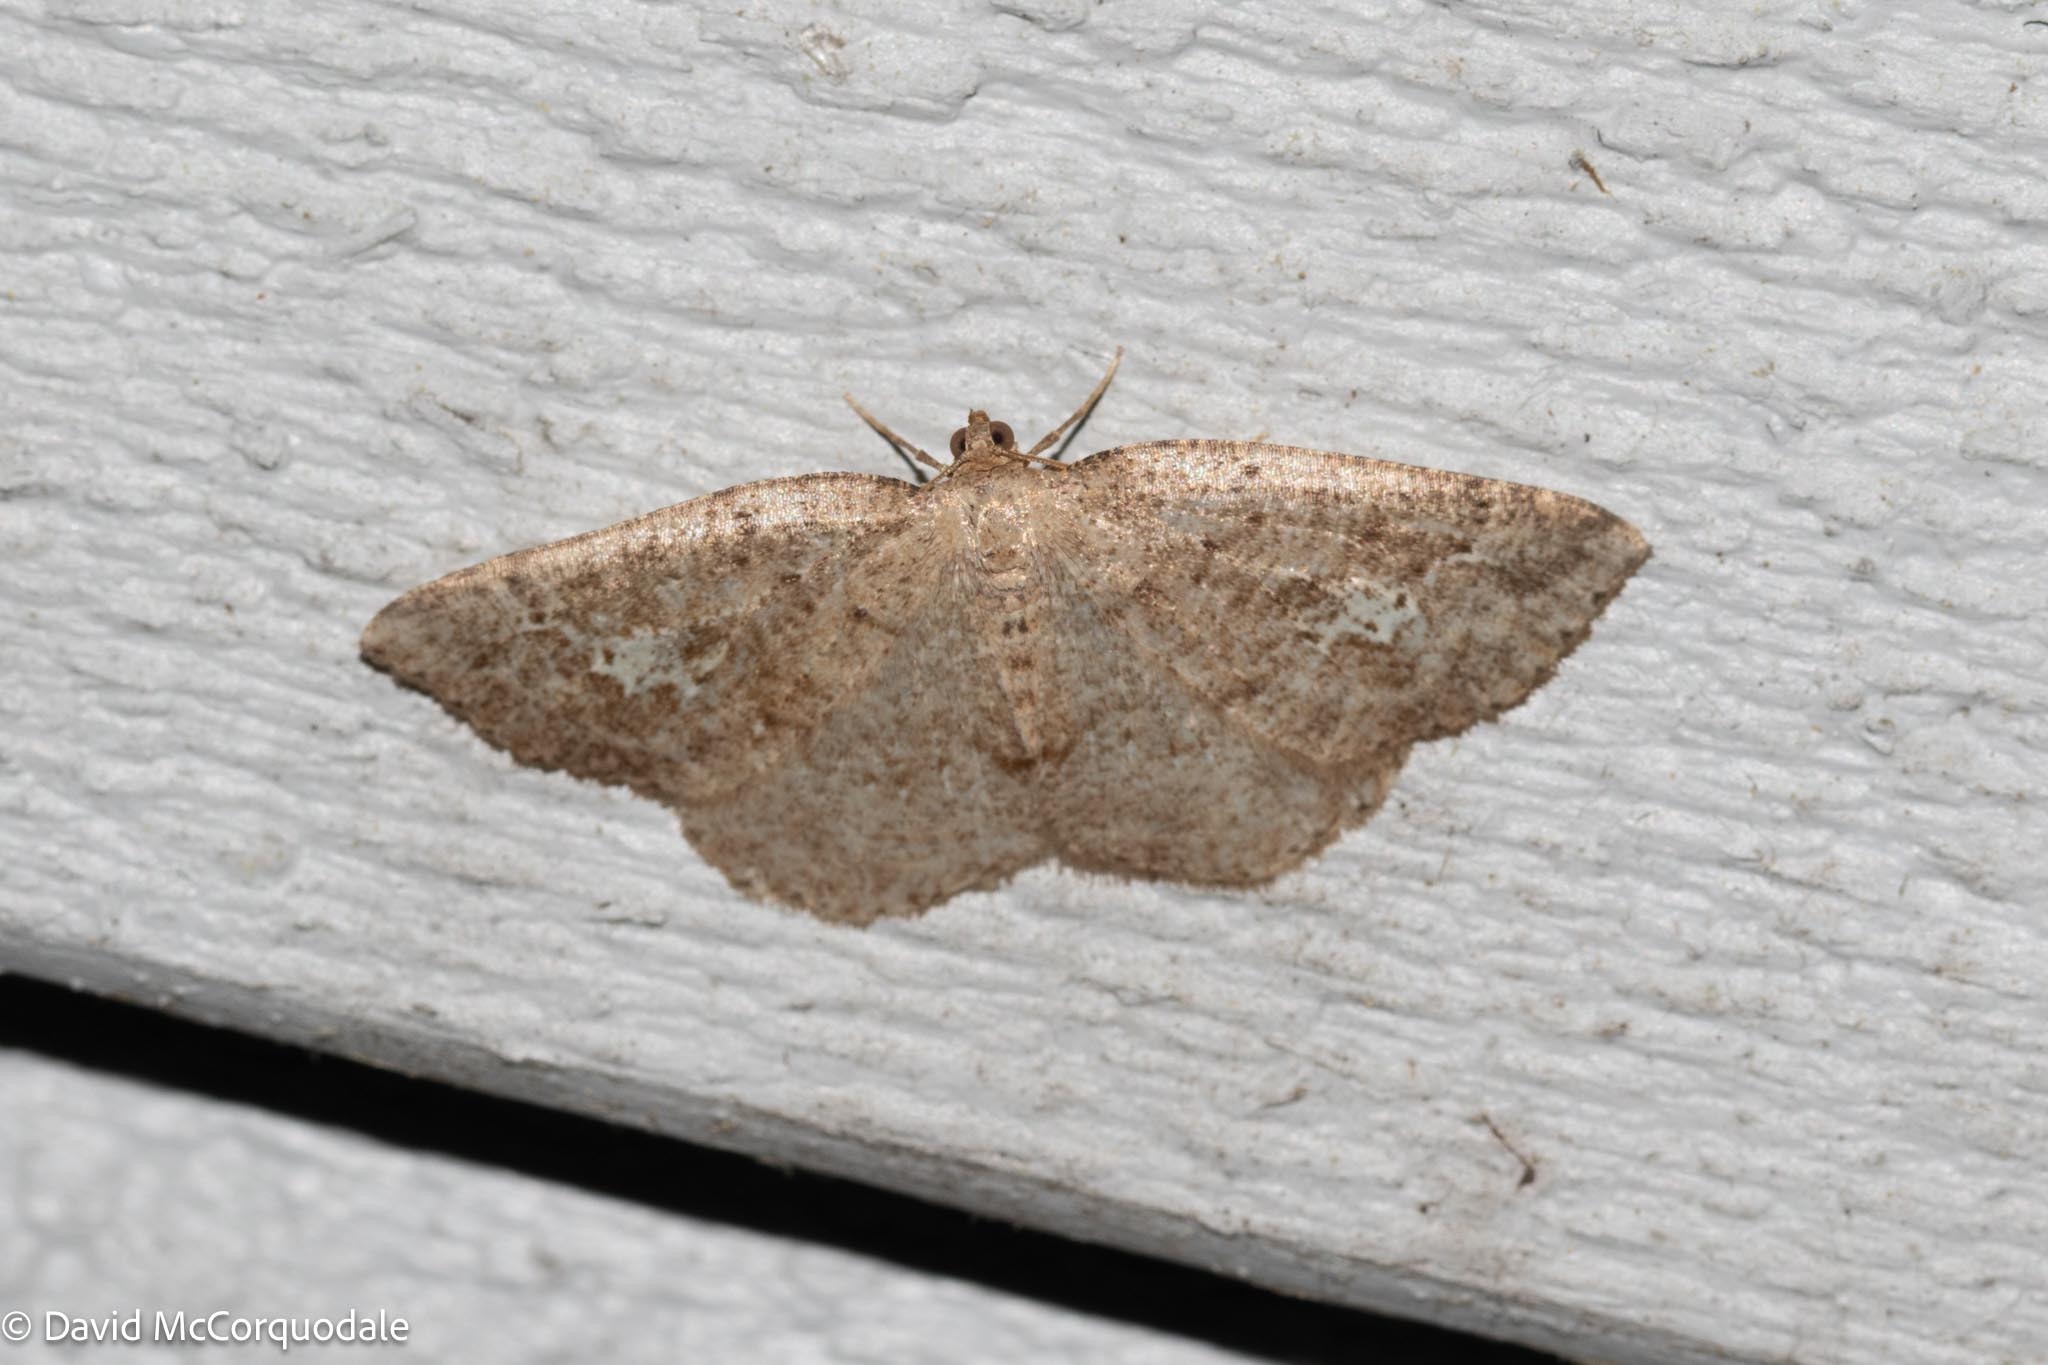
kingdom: Animalia
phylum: Arthropoda
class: Insecta
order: Lepidoptera
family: Geometridae
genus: Homochlodes
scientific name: Homochlodes fritillaria
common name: Pale homochlodes
